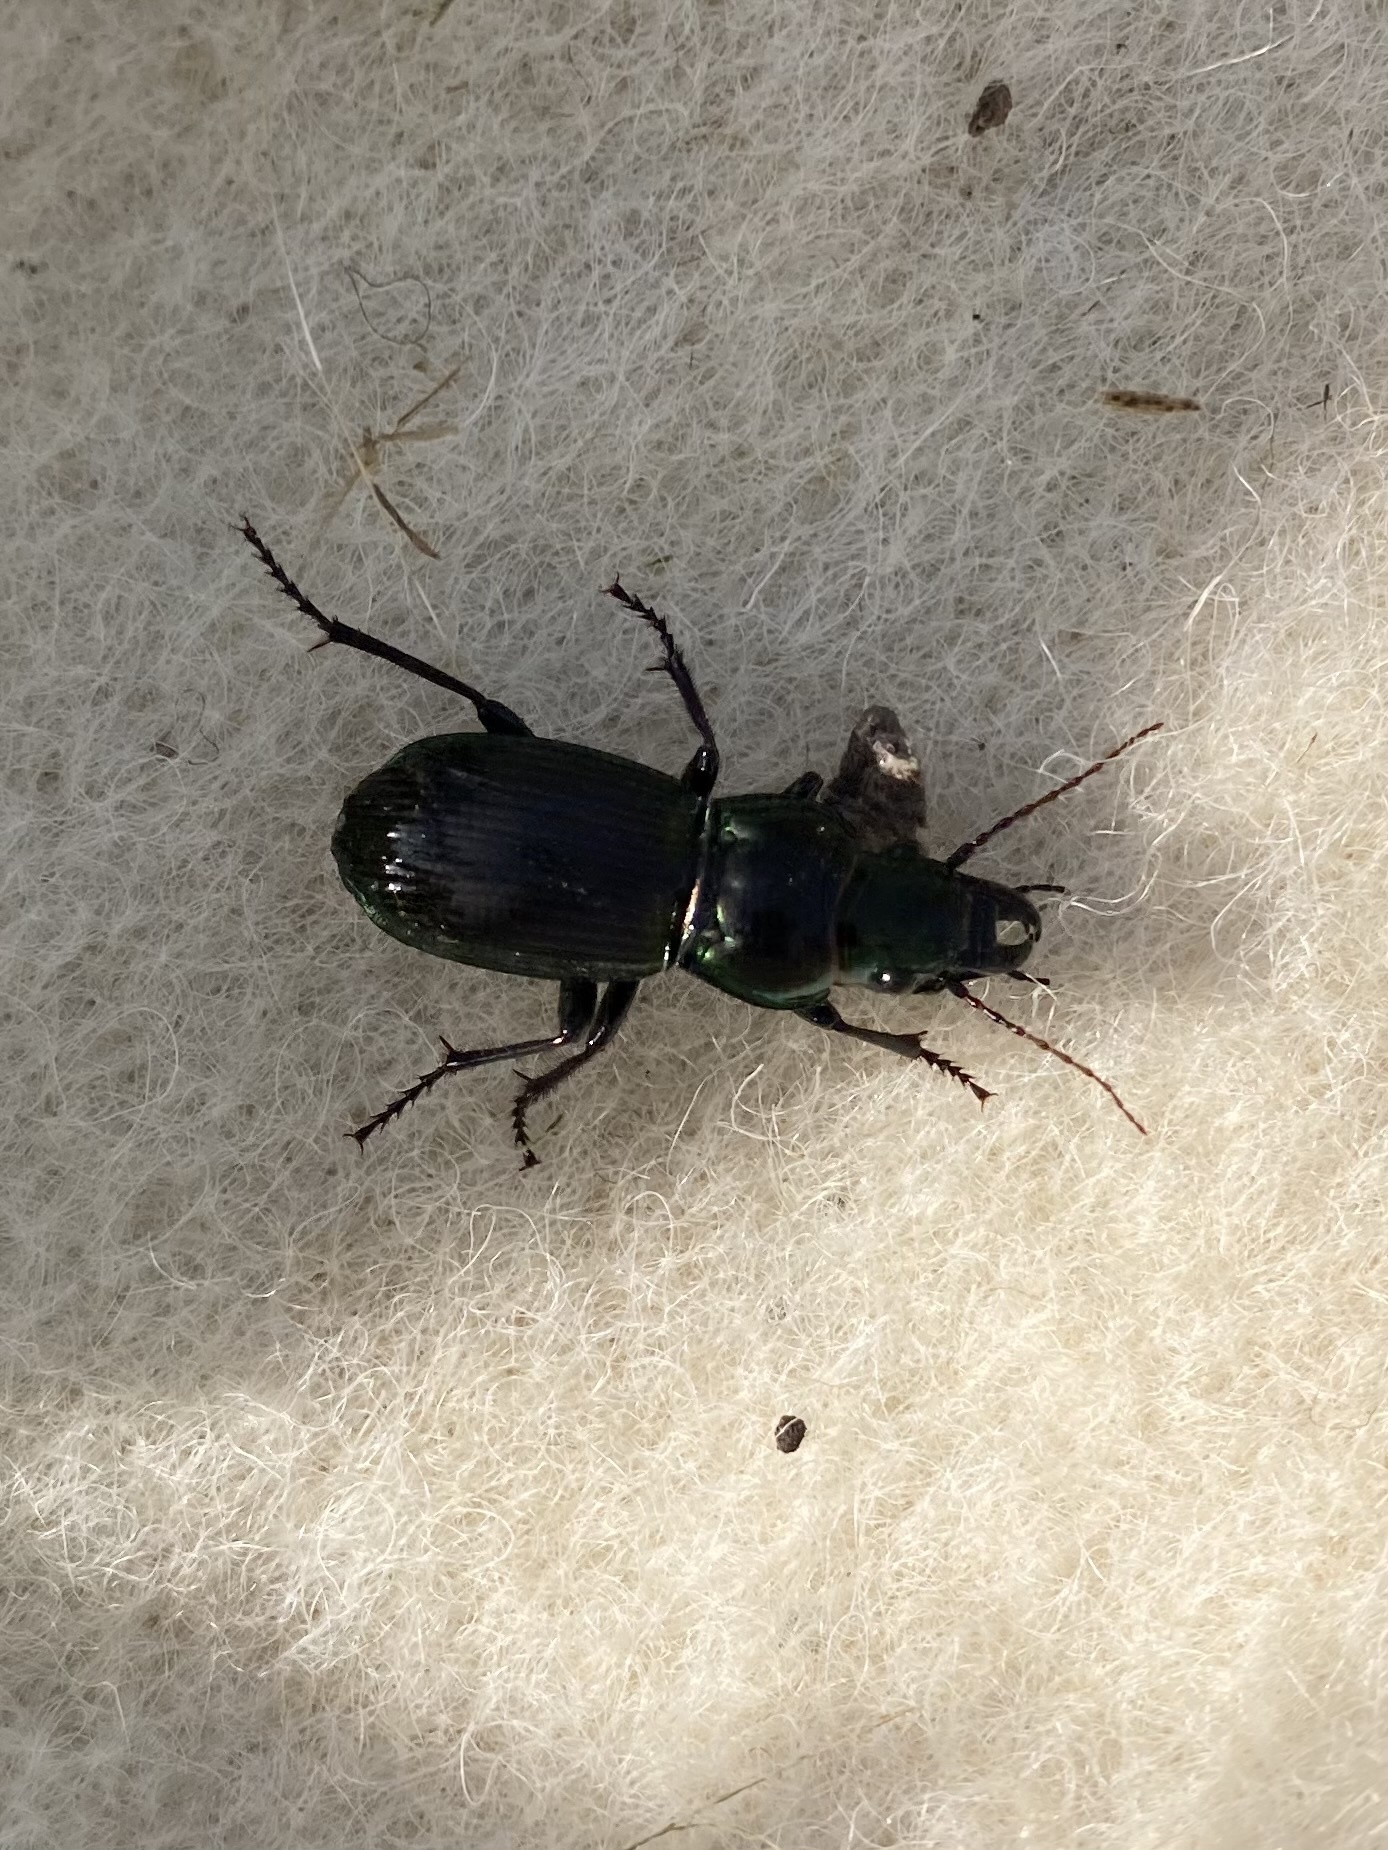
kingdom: Animalia
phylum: Arthropoda
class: Insecta
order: Coleoptera
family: Carabidae
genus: Megadromus
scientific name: Megadromus antarcticus
